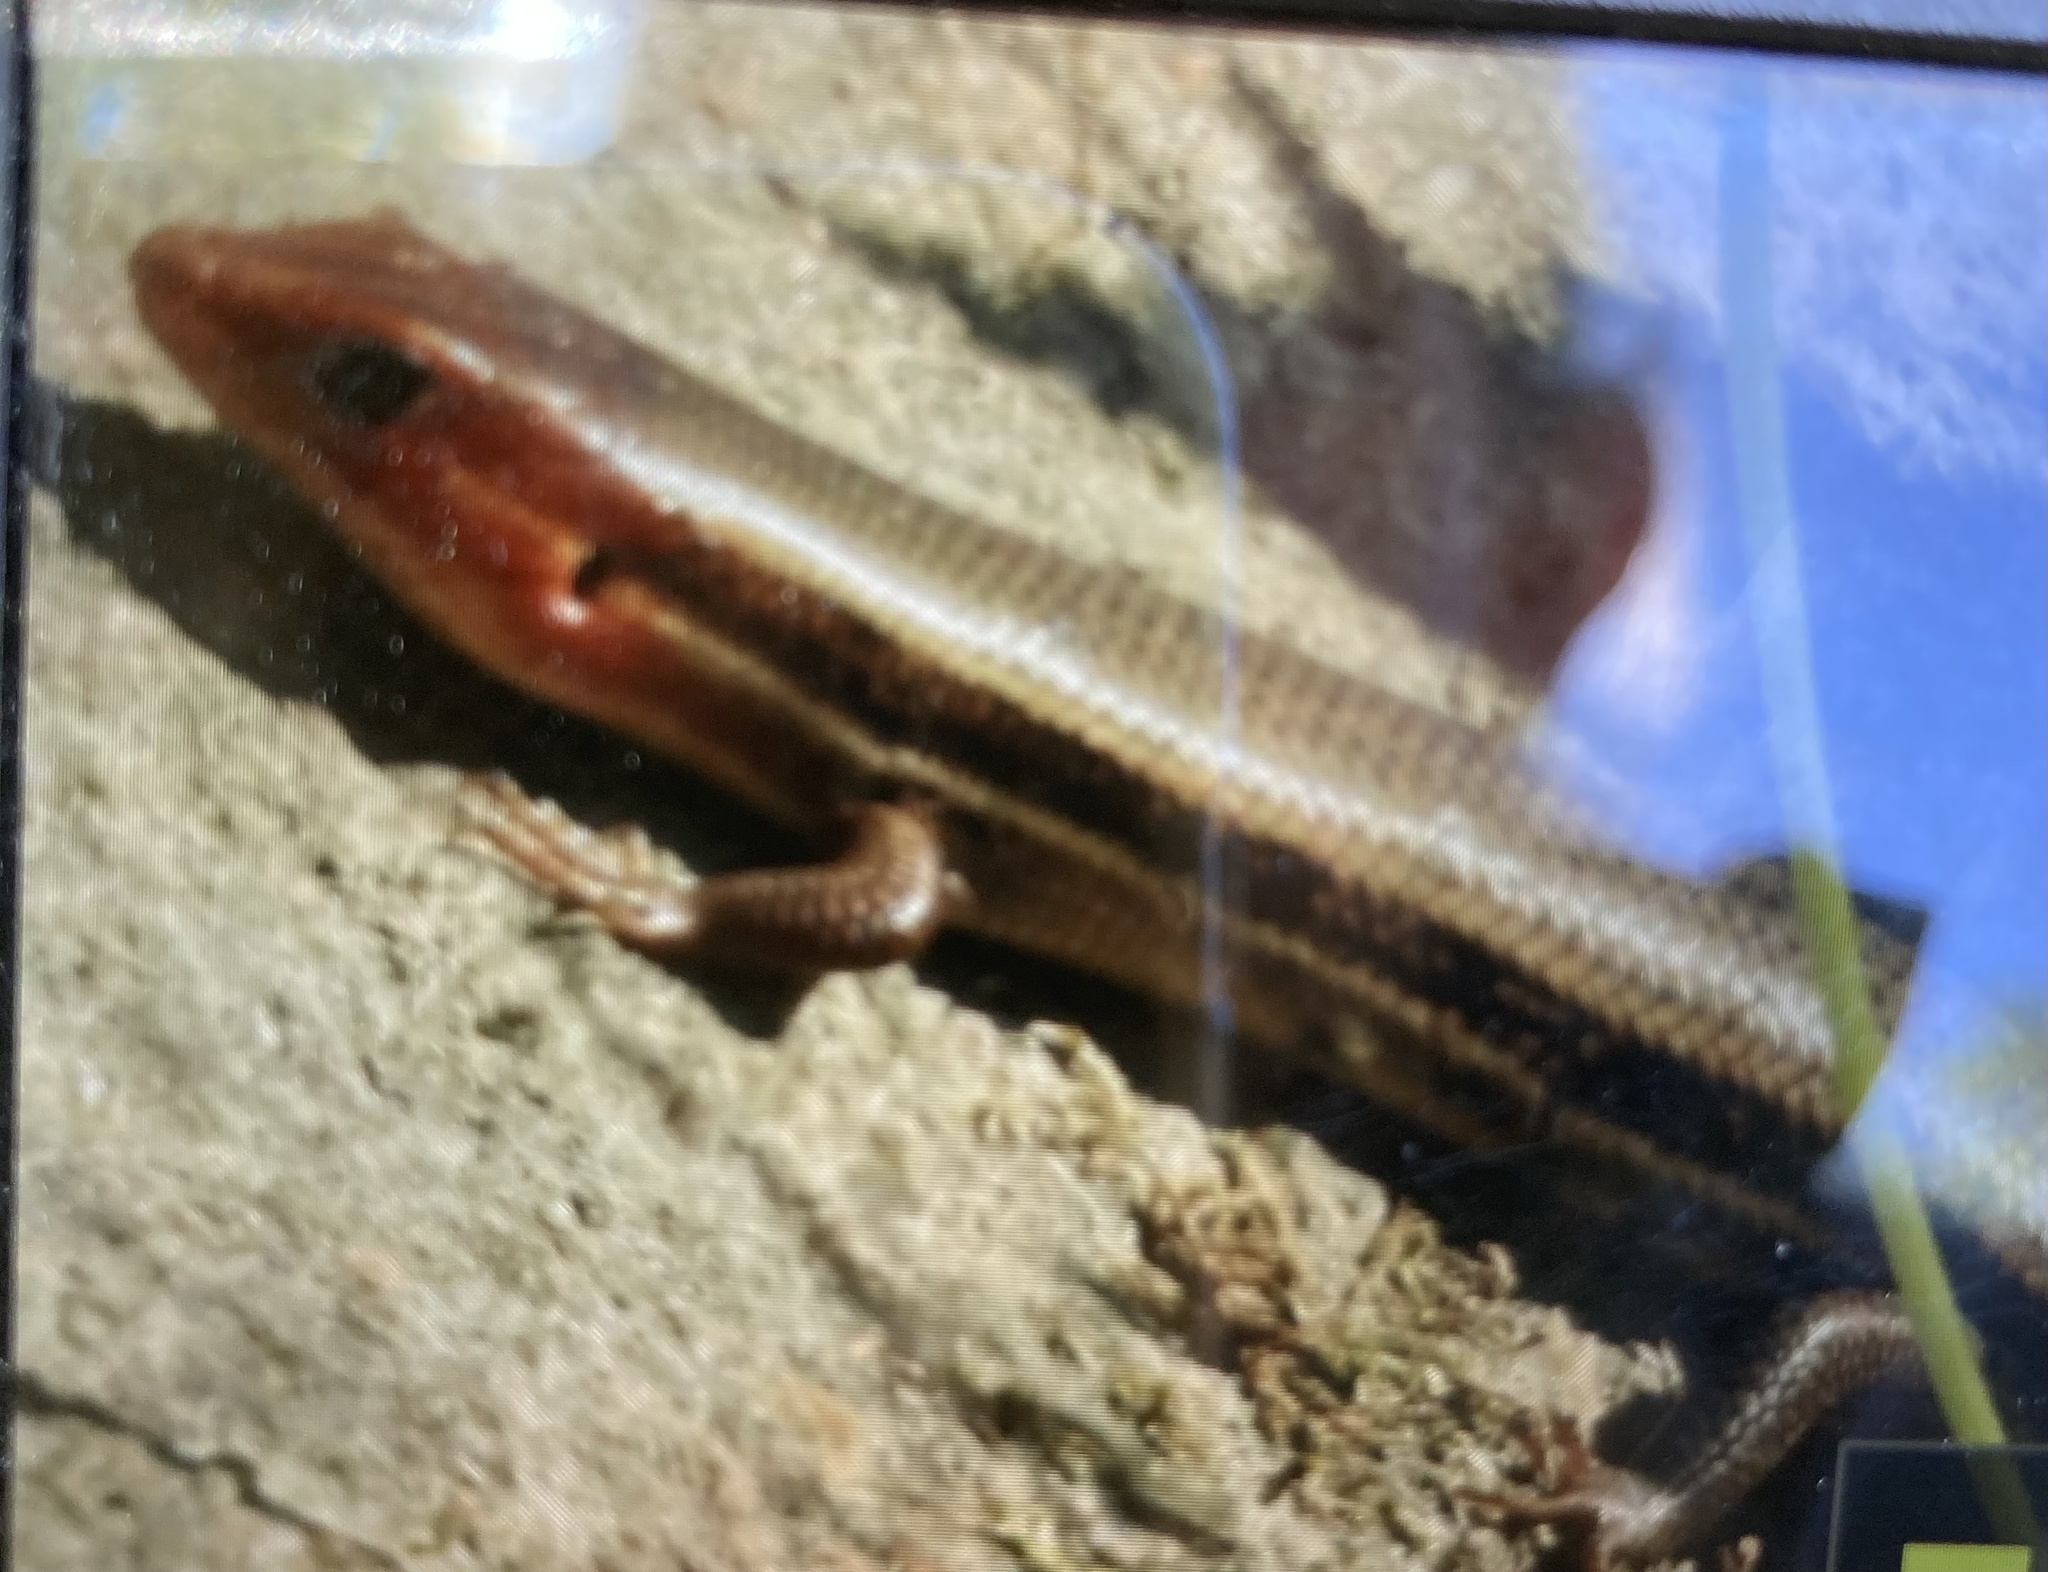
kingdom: Animalia
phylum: Chordata
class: Squamata
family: Scincidae
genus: Plestiodon
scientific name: Plestiodon inexpectatus
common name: Southeastern five-lined skink
